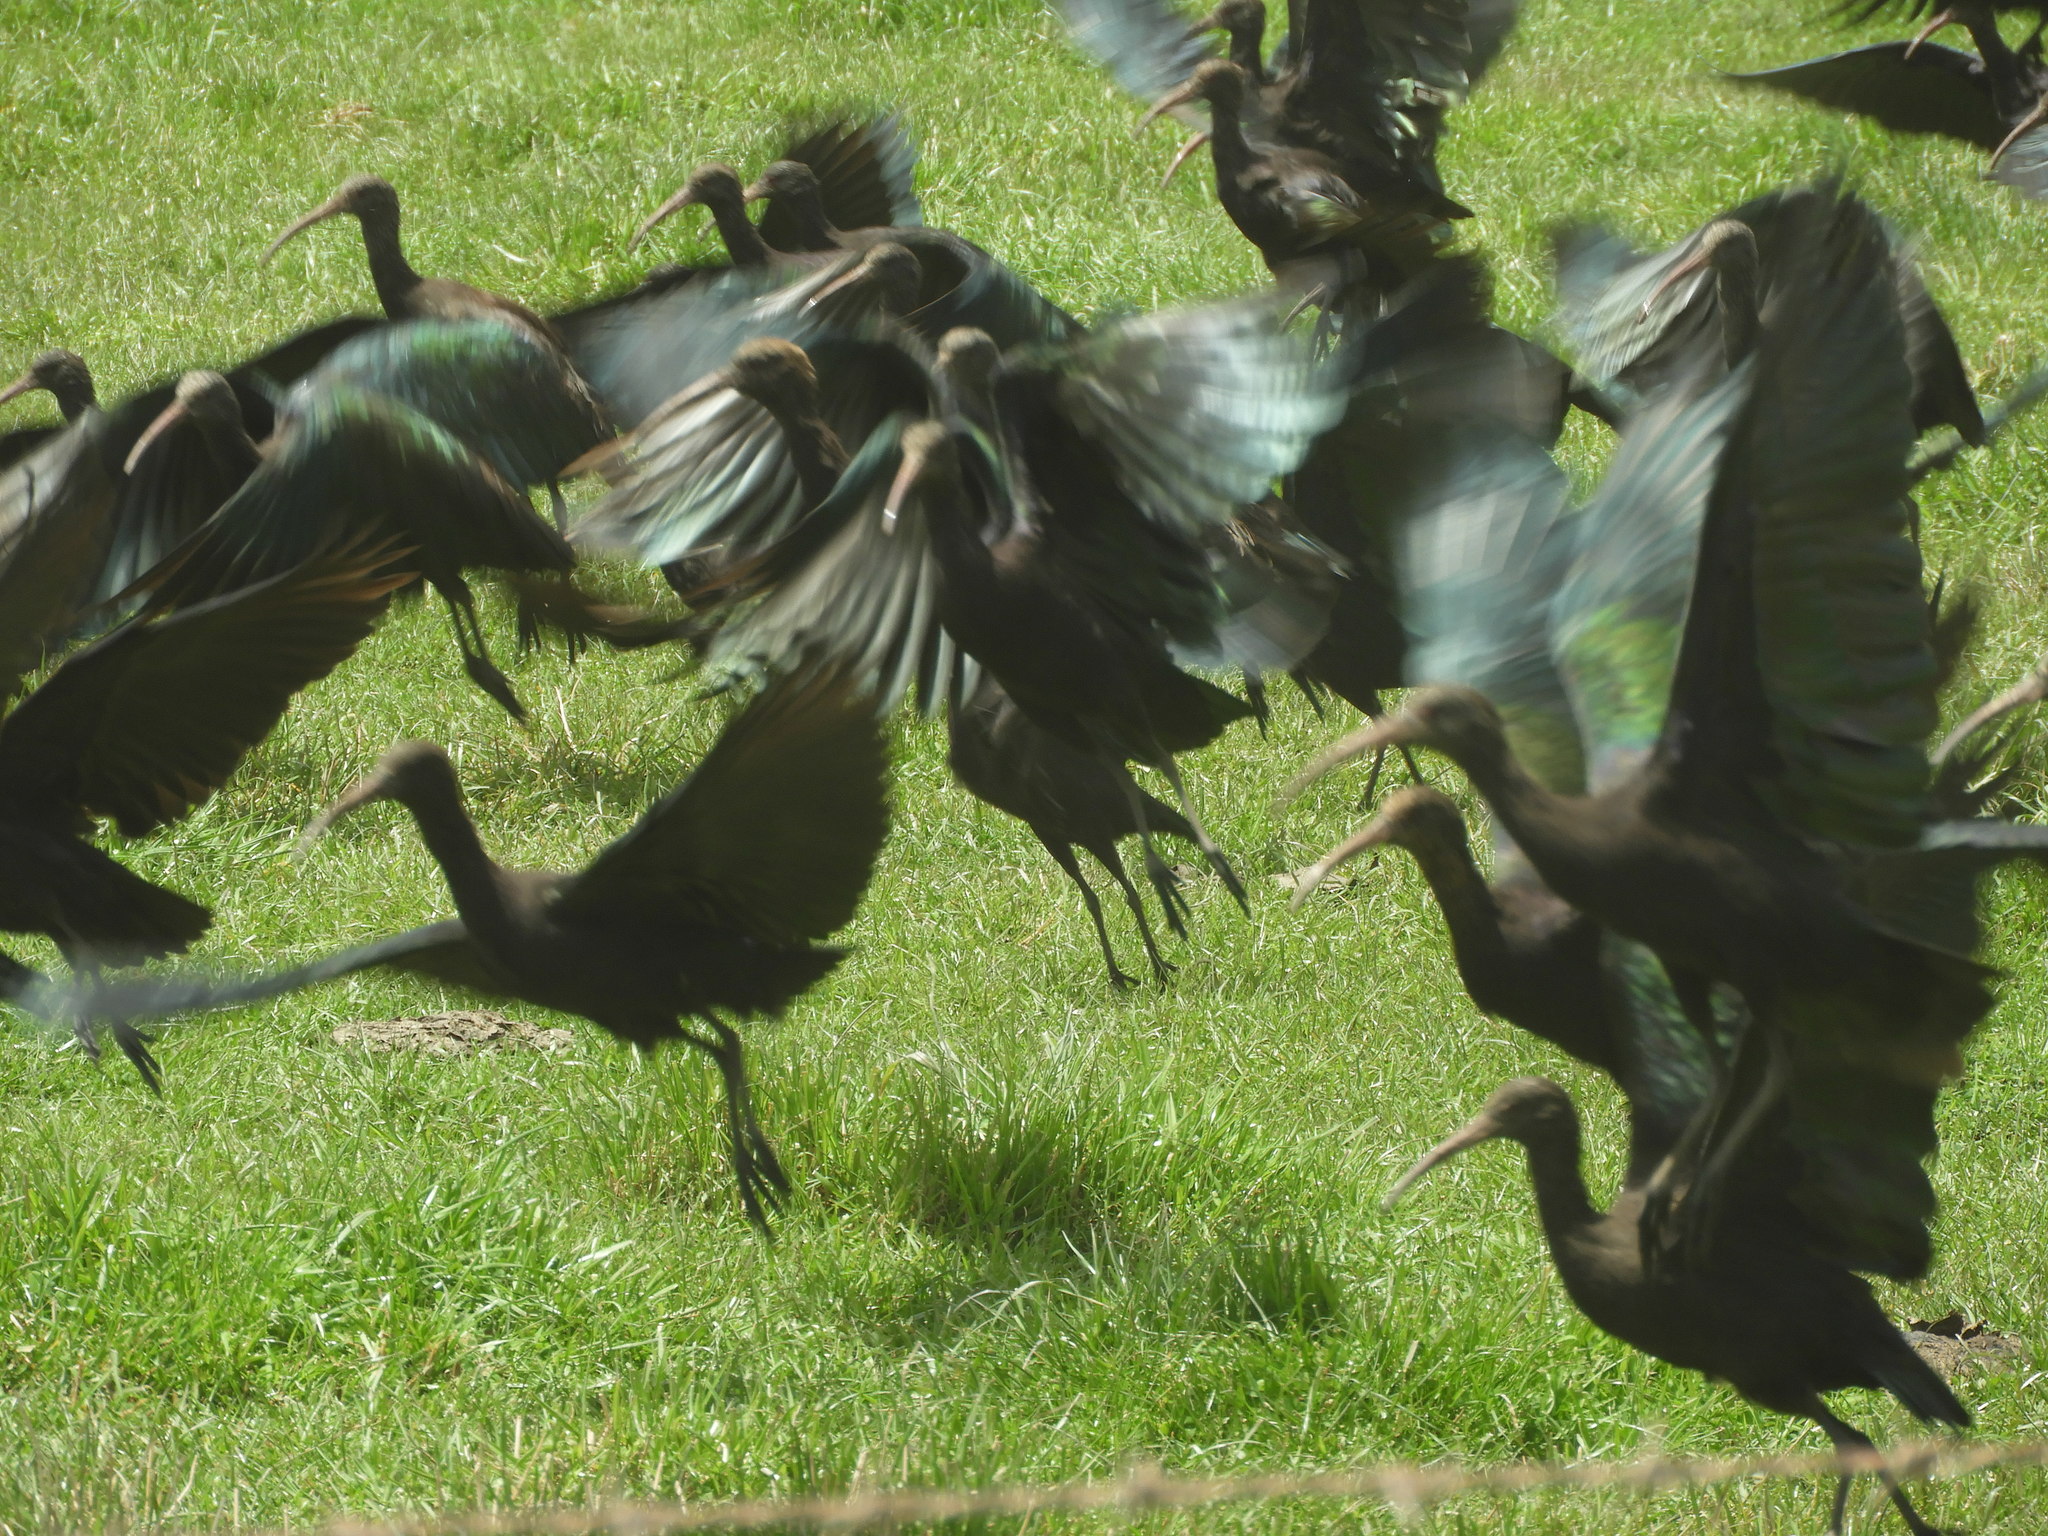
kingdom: Animalia
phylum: Chordata
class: Aves
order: Pelecaniformes
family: Threskiornithidae
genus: Plegadis
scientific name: Plegadis ridgwayi
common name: Puna ibis
